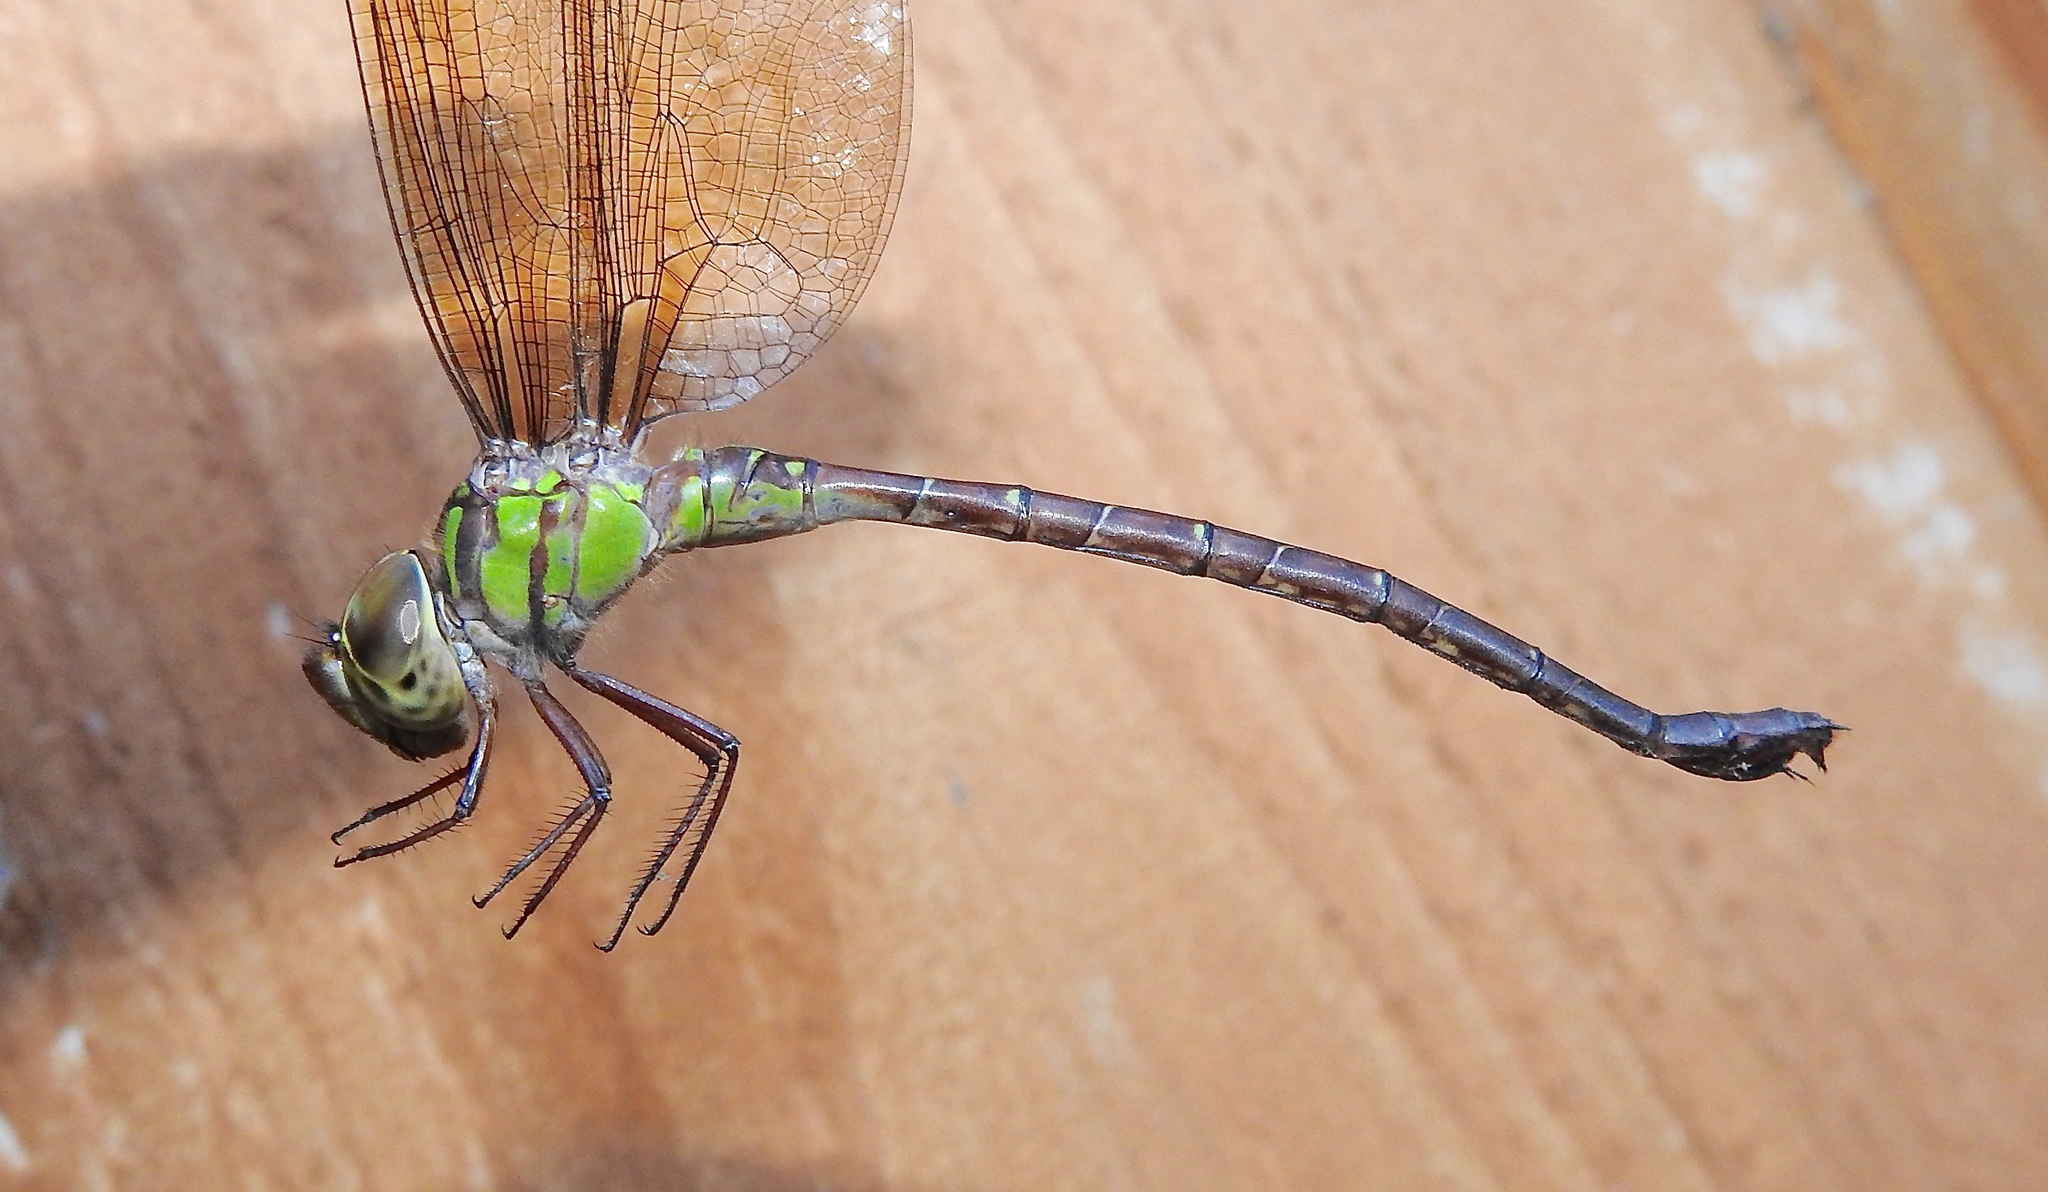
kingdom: Animalia
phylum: Arthropoda
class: Insecta
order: Odonata
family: Aeshnidae
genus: Triacanthagyna
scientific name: Triacanthagyna trifida
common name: Phantom darner
